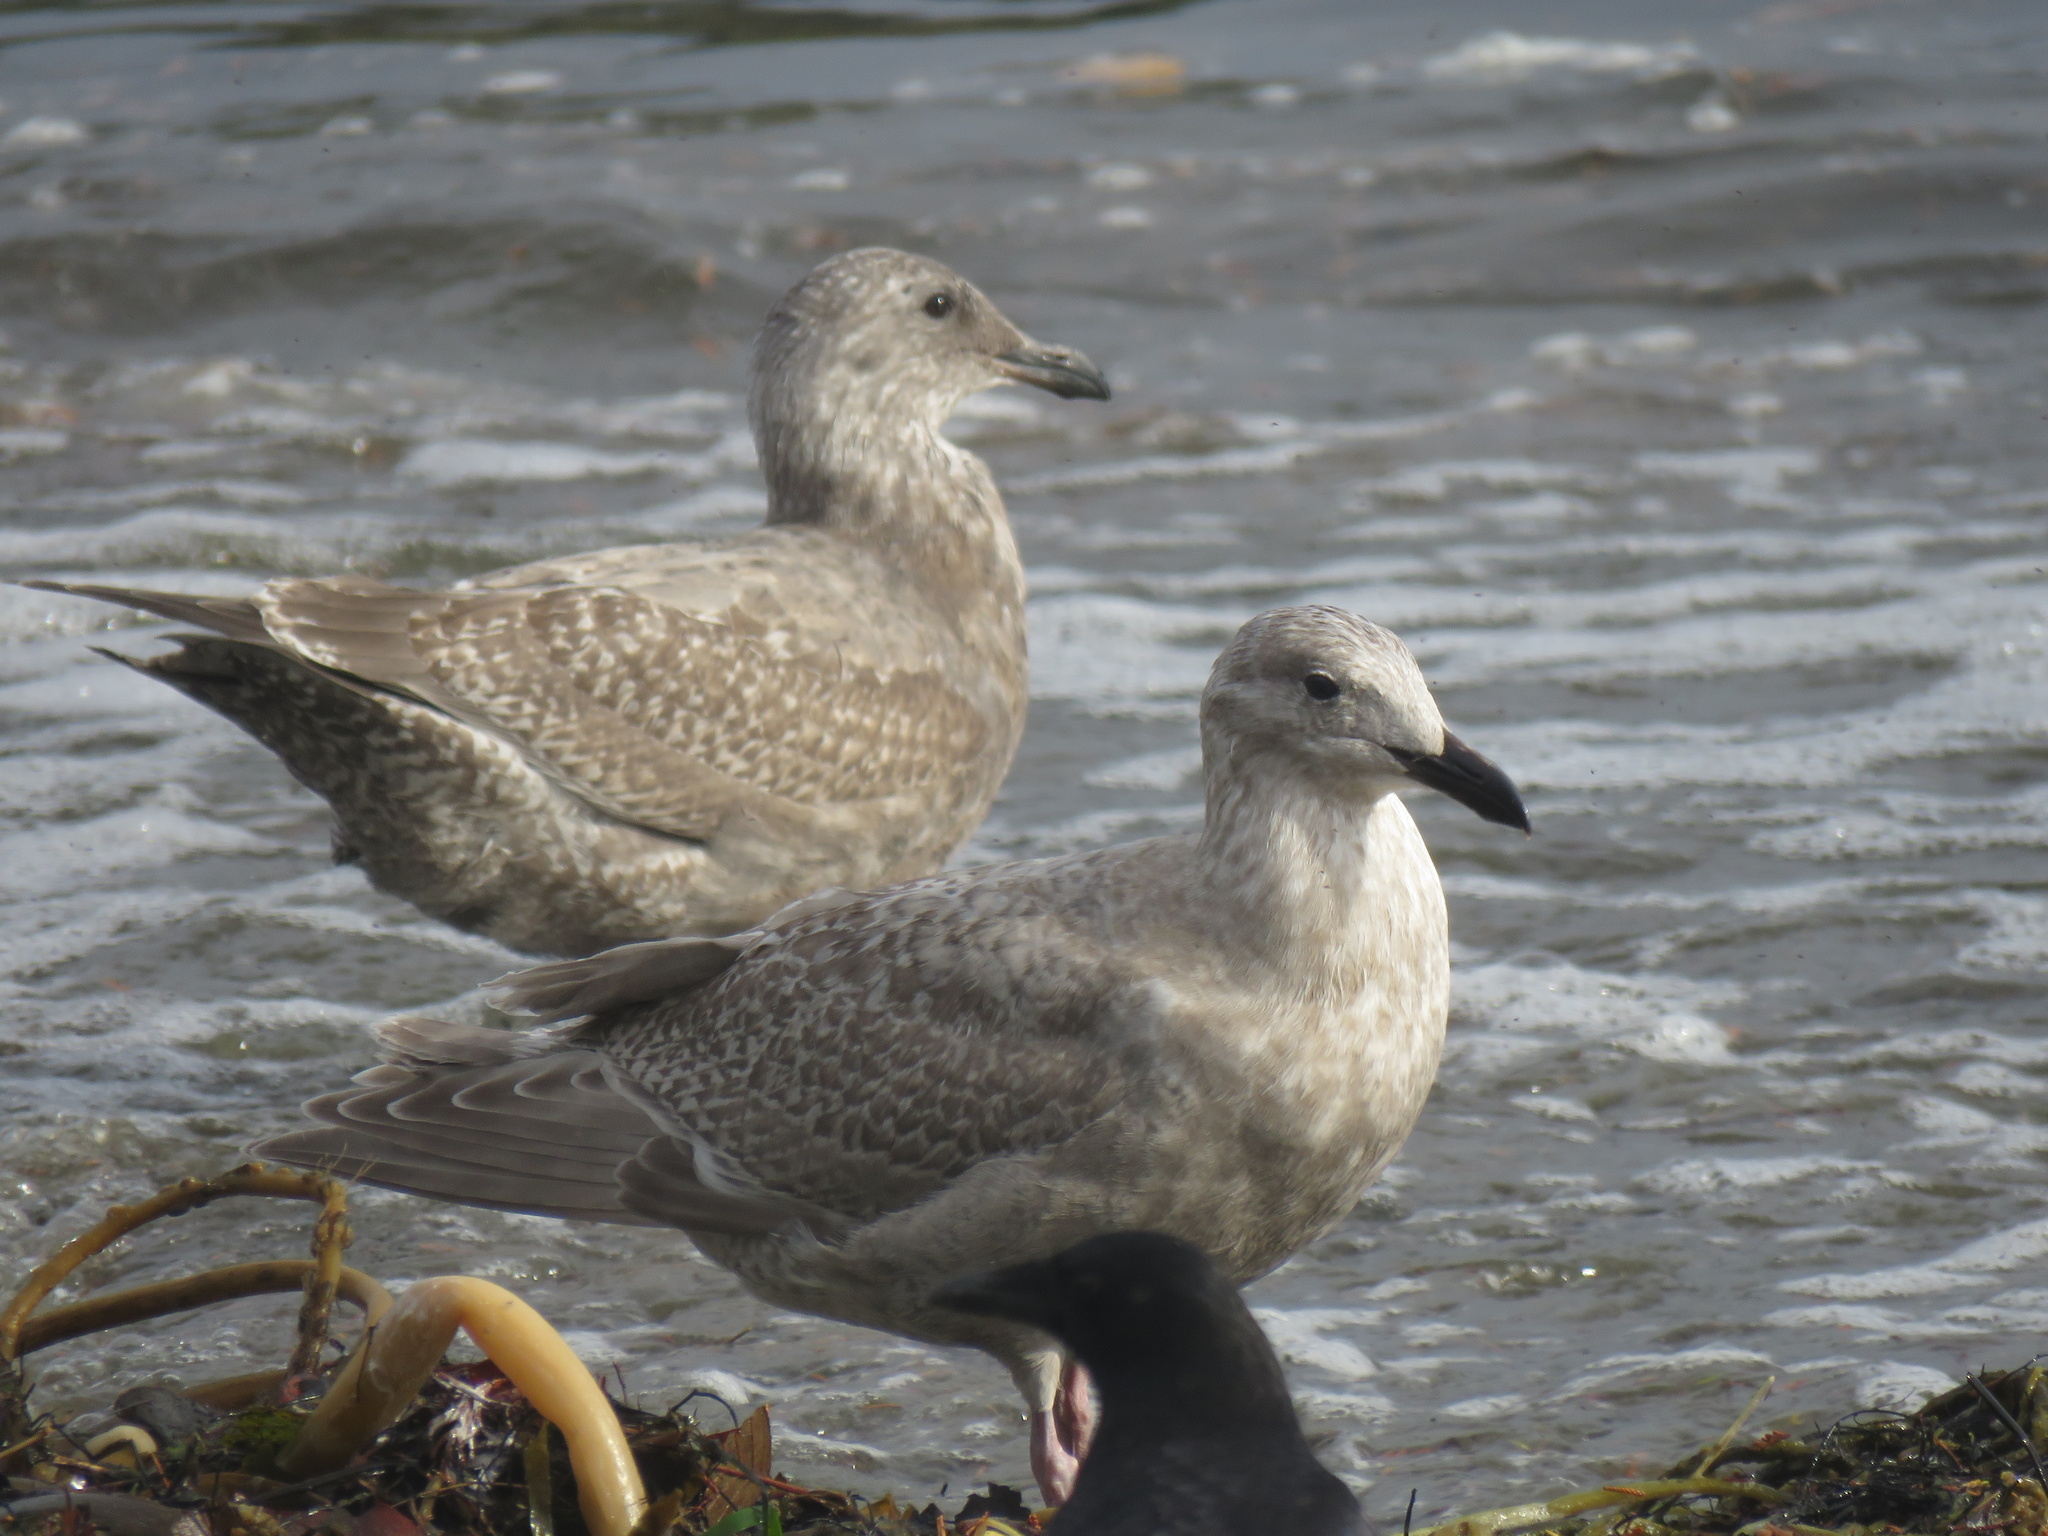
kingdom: Animalia
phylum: Chordata
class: Aves
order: Charadriiformes
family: Laridae
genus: Larus
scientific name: Larus glaucescens
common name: Glaucous-winged gull
